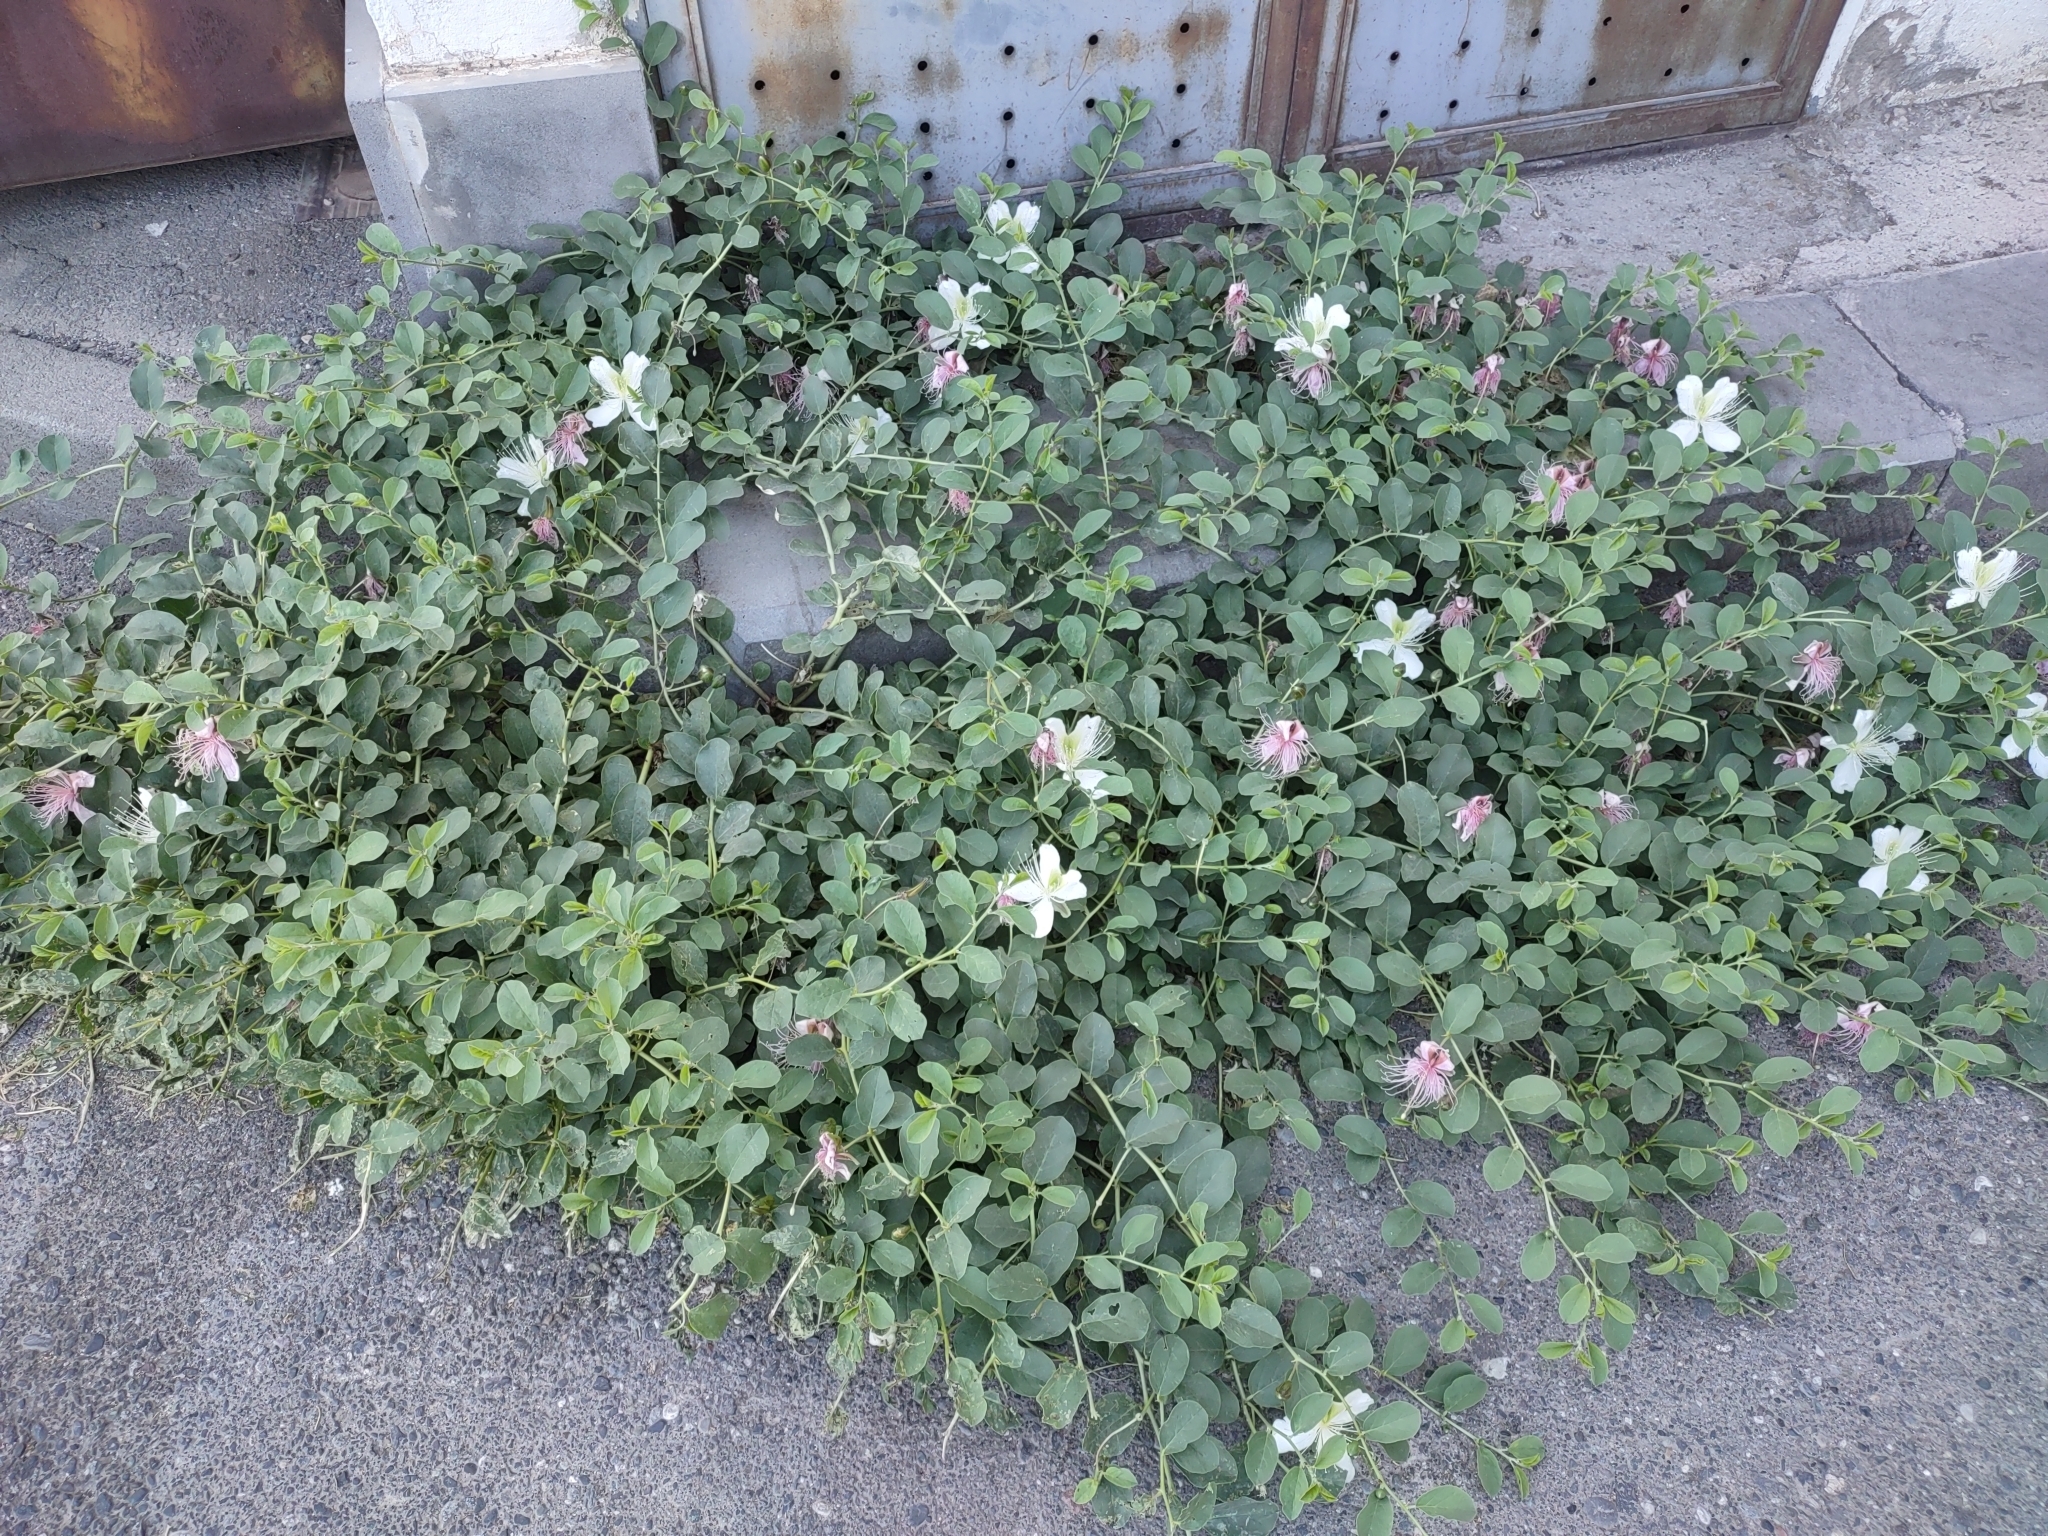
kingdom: Plantae
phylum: Tracheophyta
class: Magnoliopsida
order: Brassicales
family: Capparaceae
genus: Capparis
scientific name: Capparis spinosa
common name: Caper
